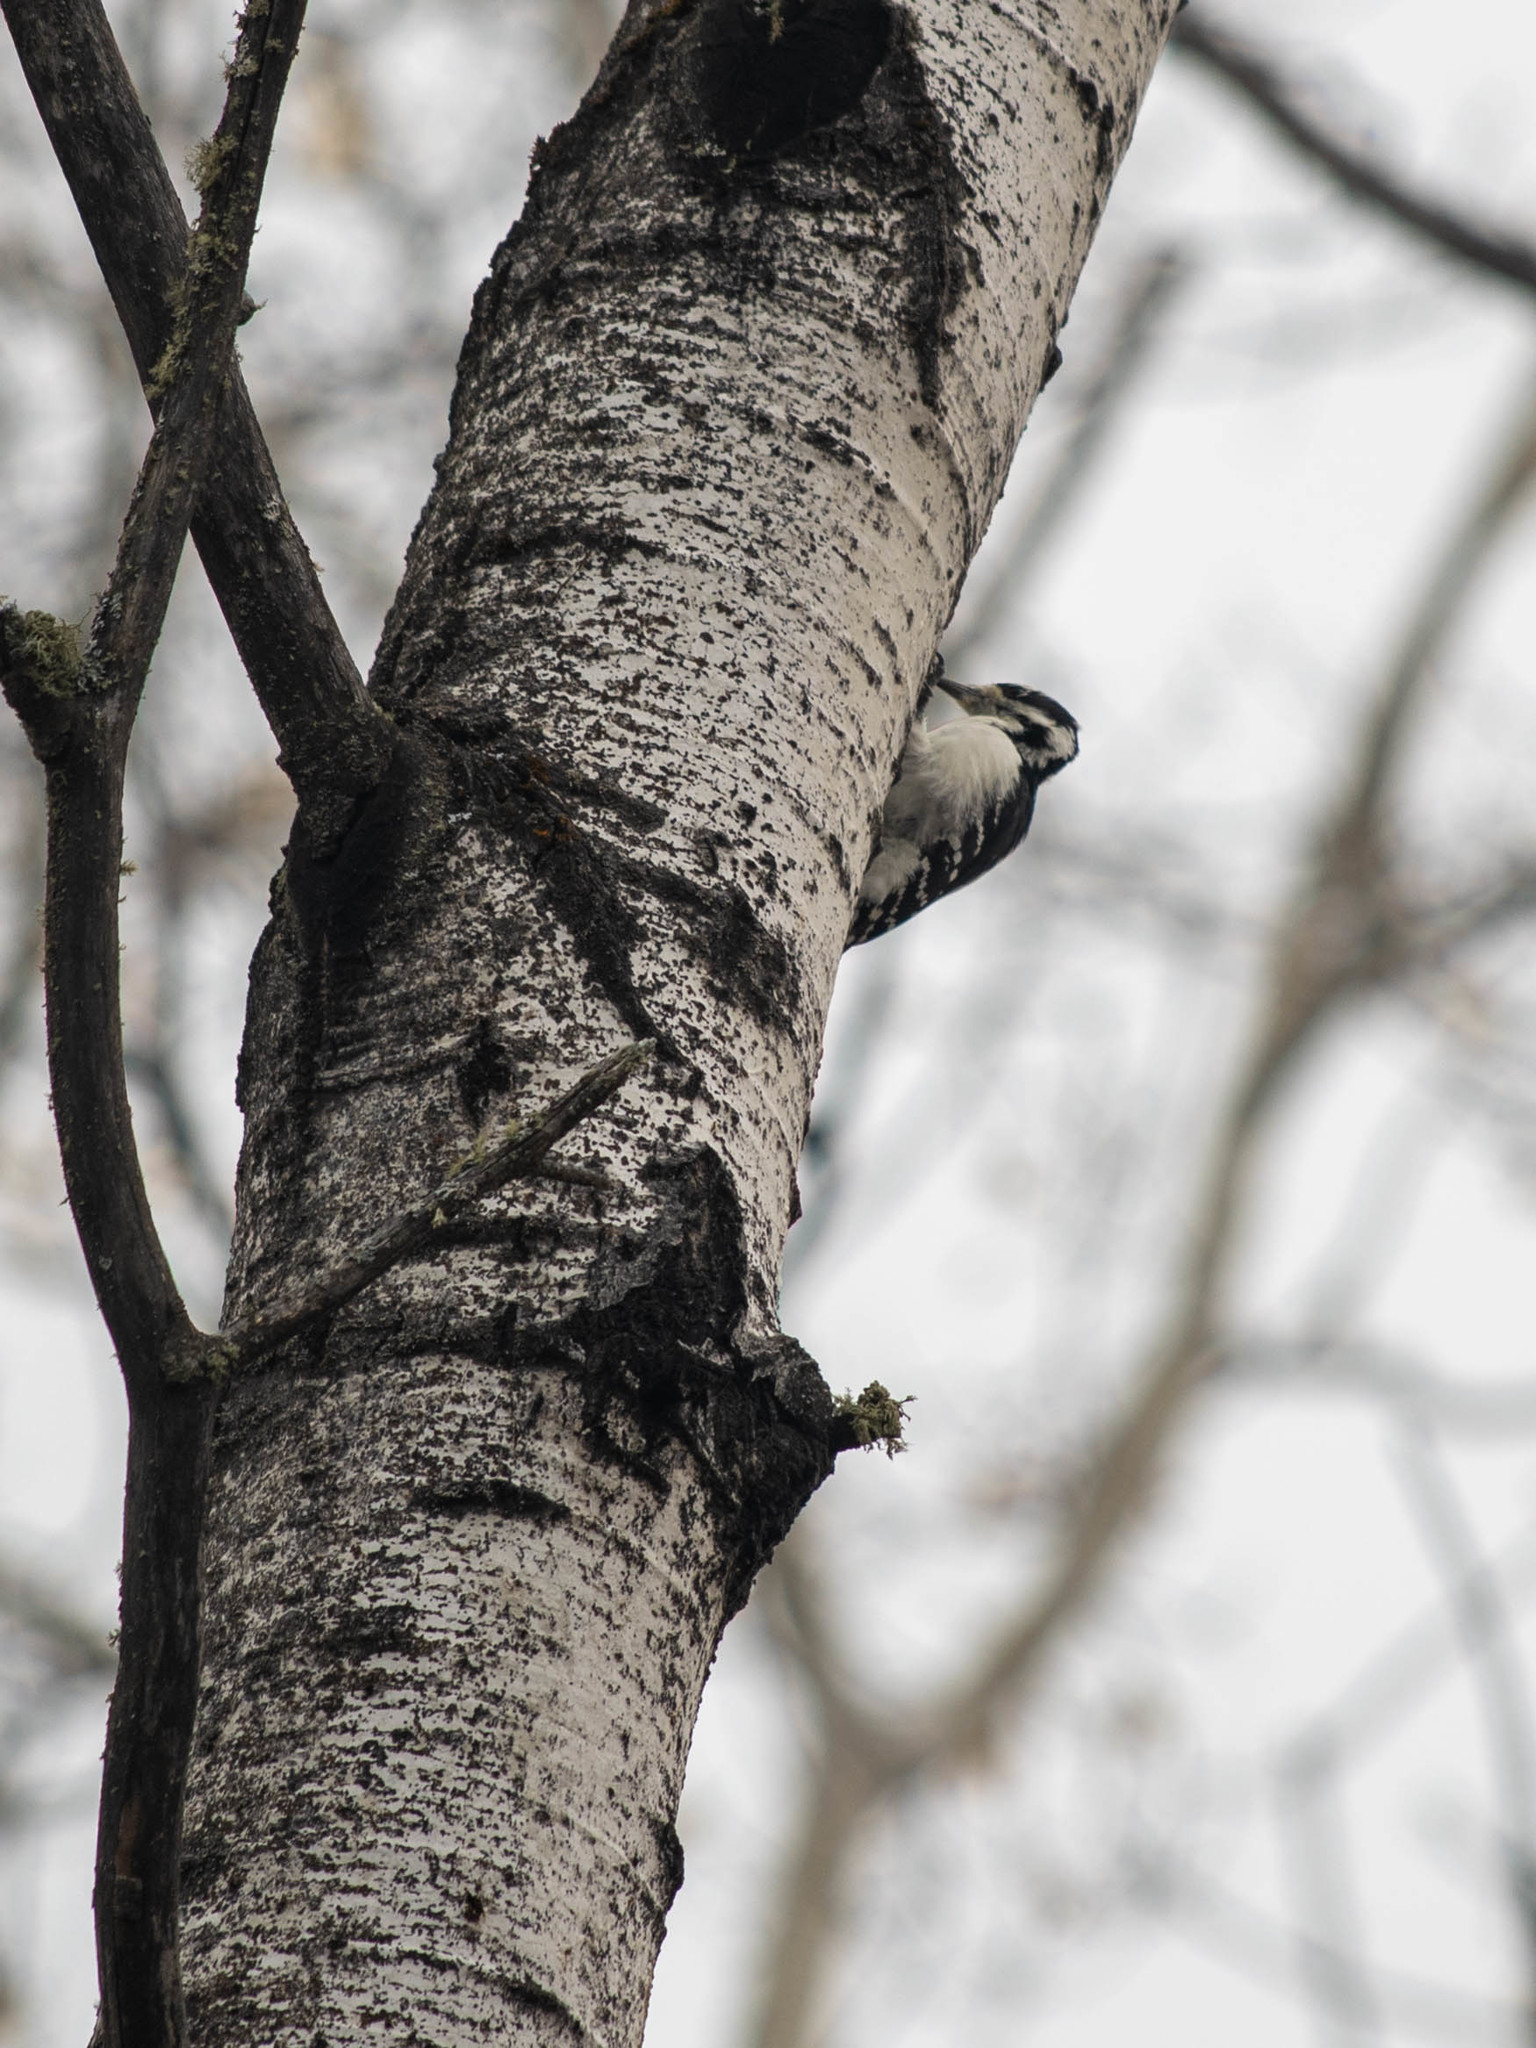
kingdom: Animalia
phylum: Chordata
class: Aves
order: Piciformes
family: Picidae
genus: Leuconotopicus
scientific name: Leuconotopicus villosus
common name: Hairy woodpecker
